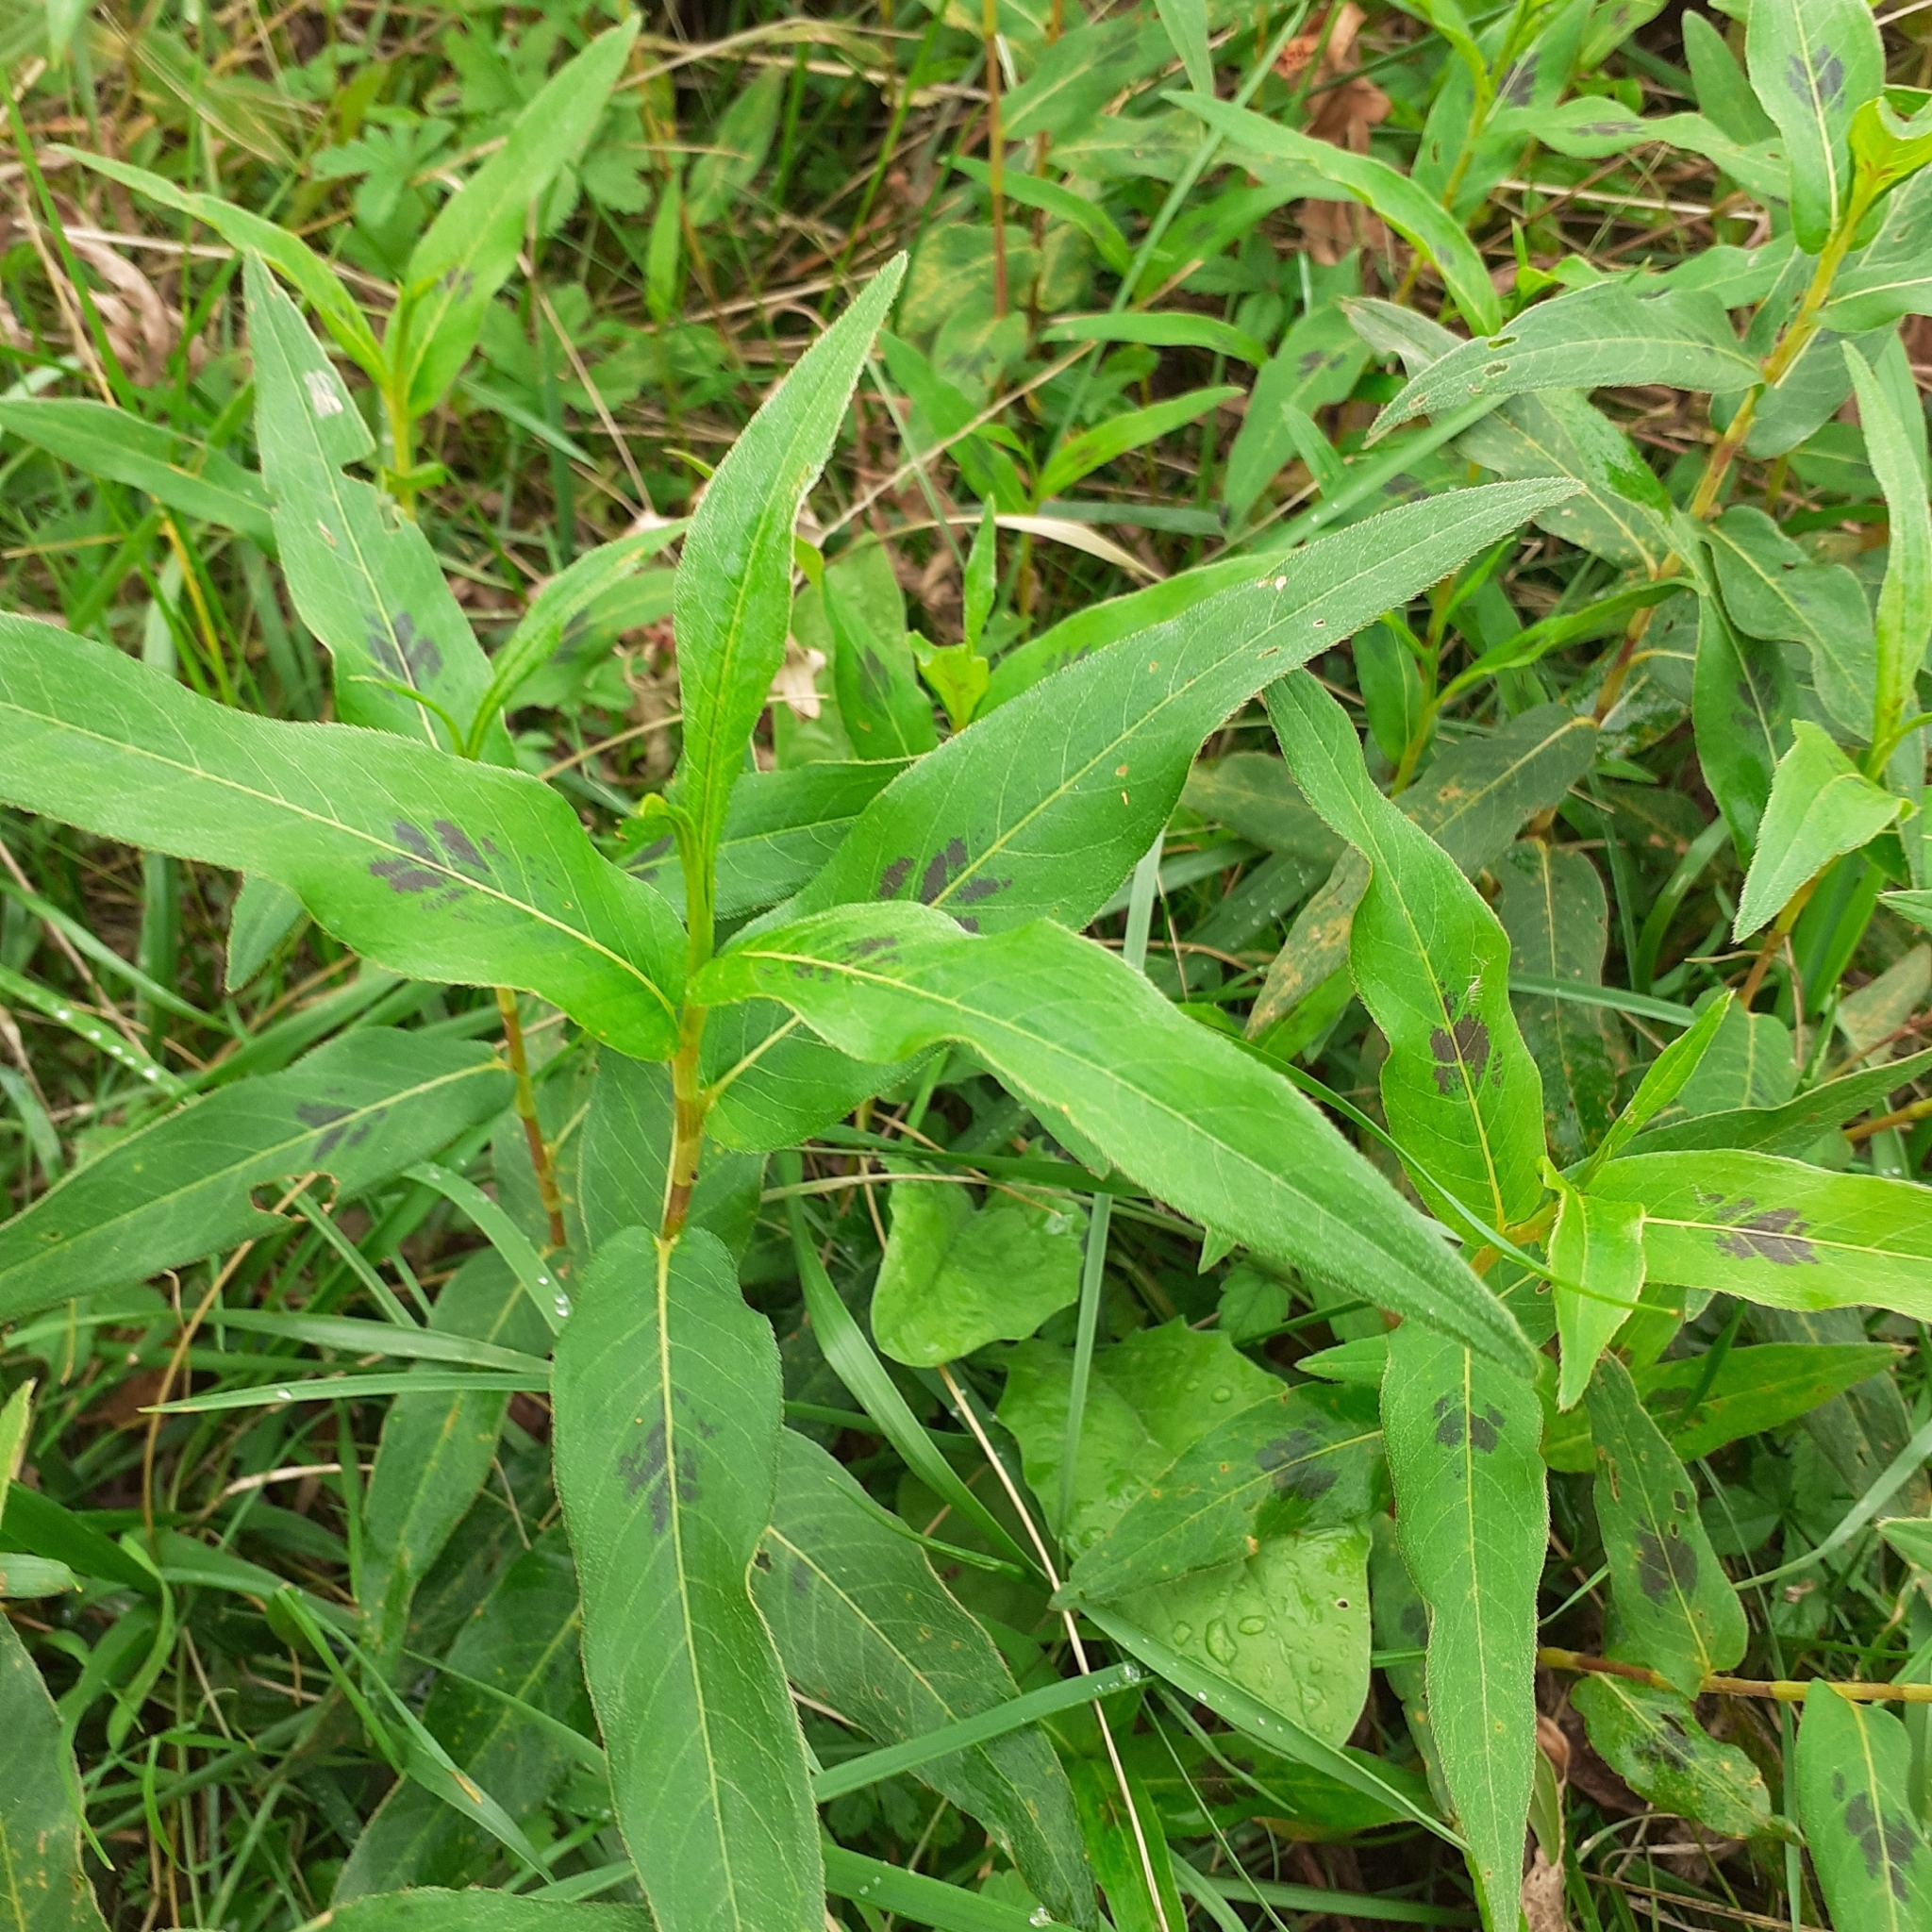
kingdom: Plantae
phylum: Tracheophyta
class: Magnoliopsida
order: Caryophyllales
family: Polygonaceae
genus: Persicaria
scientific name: Persicaria amphibia
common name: Amphibious bistort
